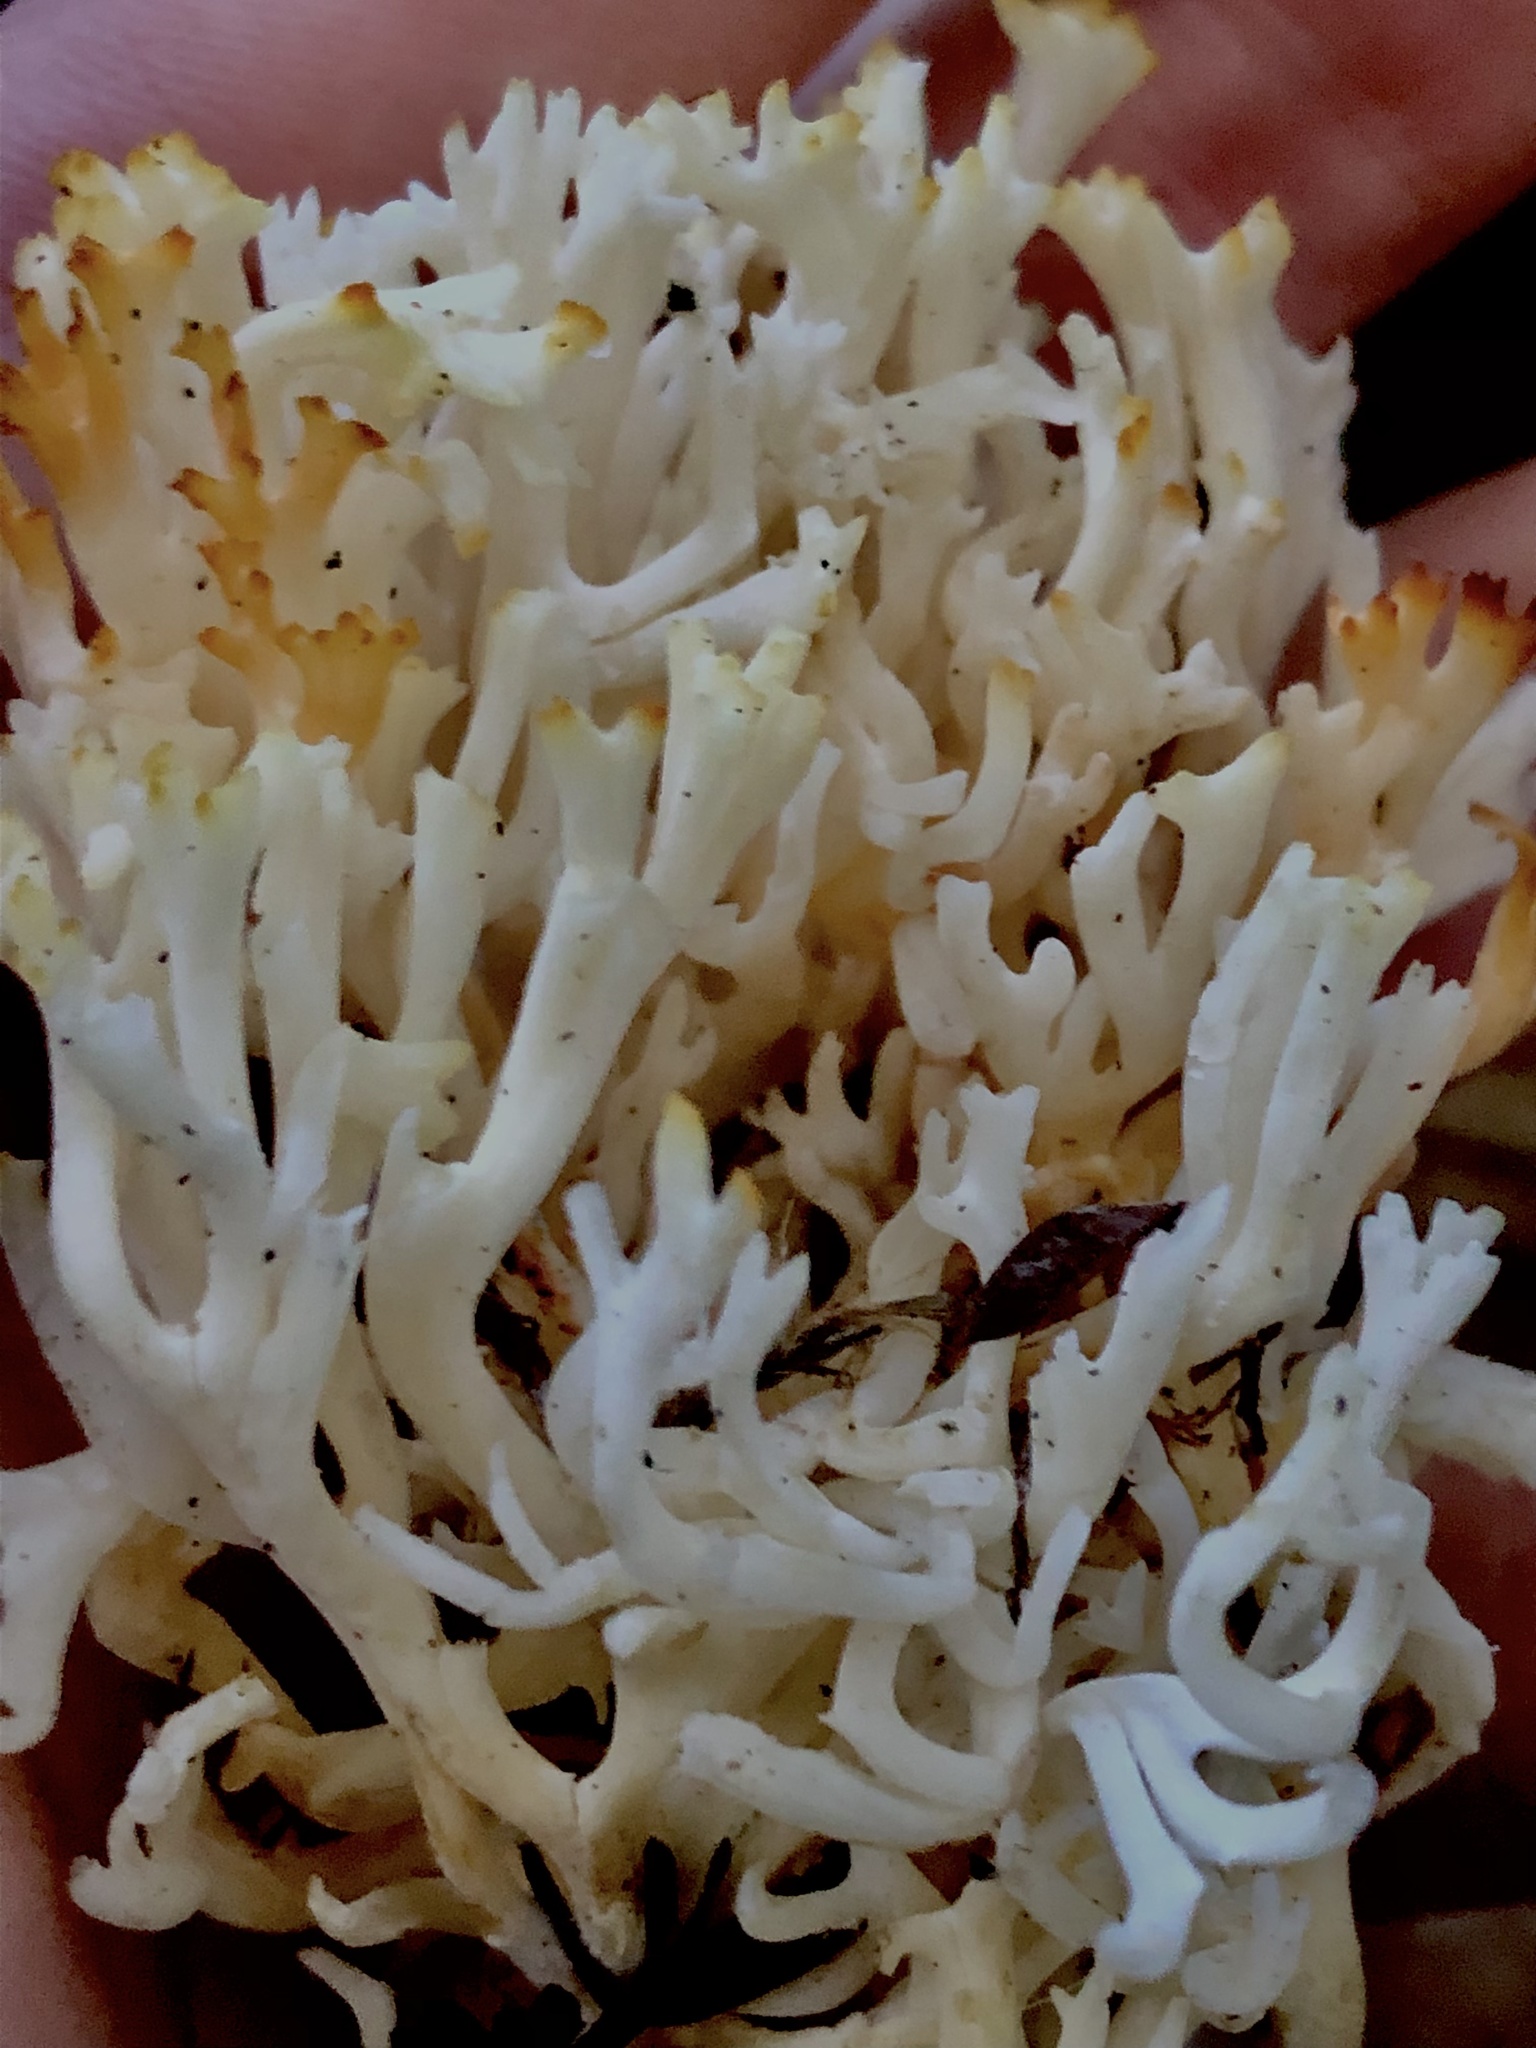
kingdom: Fungi
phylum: Basidiomycota
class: Agaricomycetes
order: Agaricales
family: Clavariaceae
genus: Ramariopsis
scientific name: Ramariopsis kunzei
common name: Ivory coral
